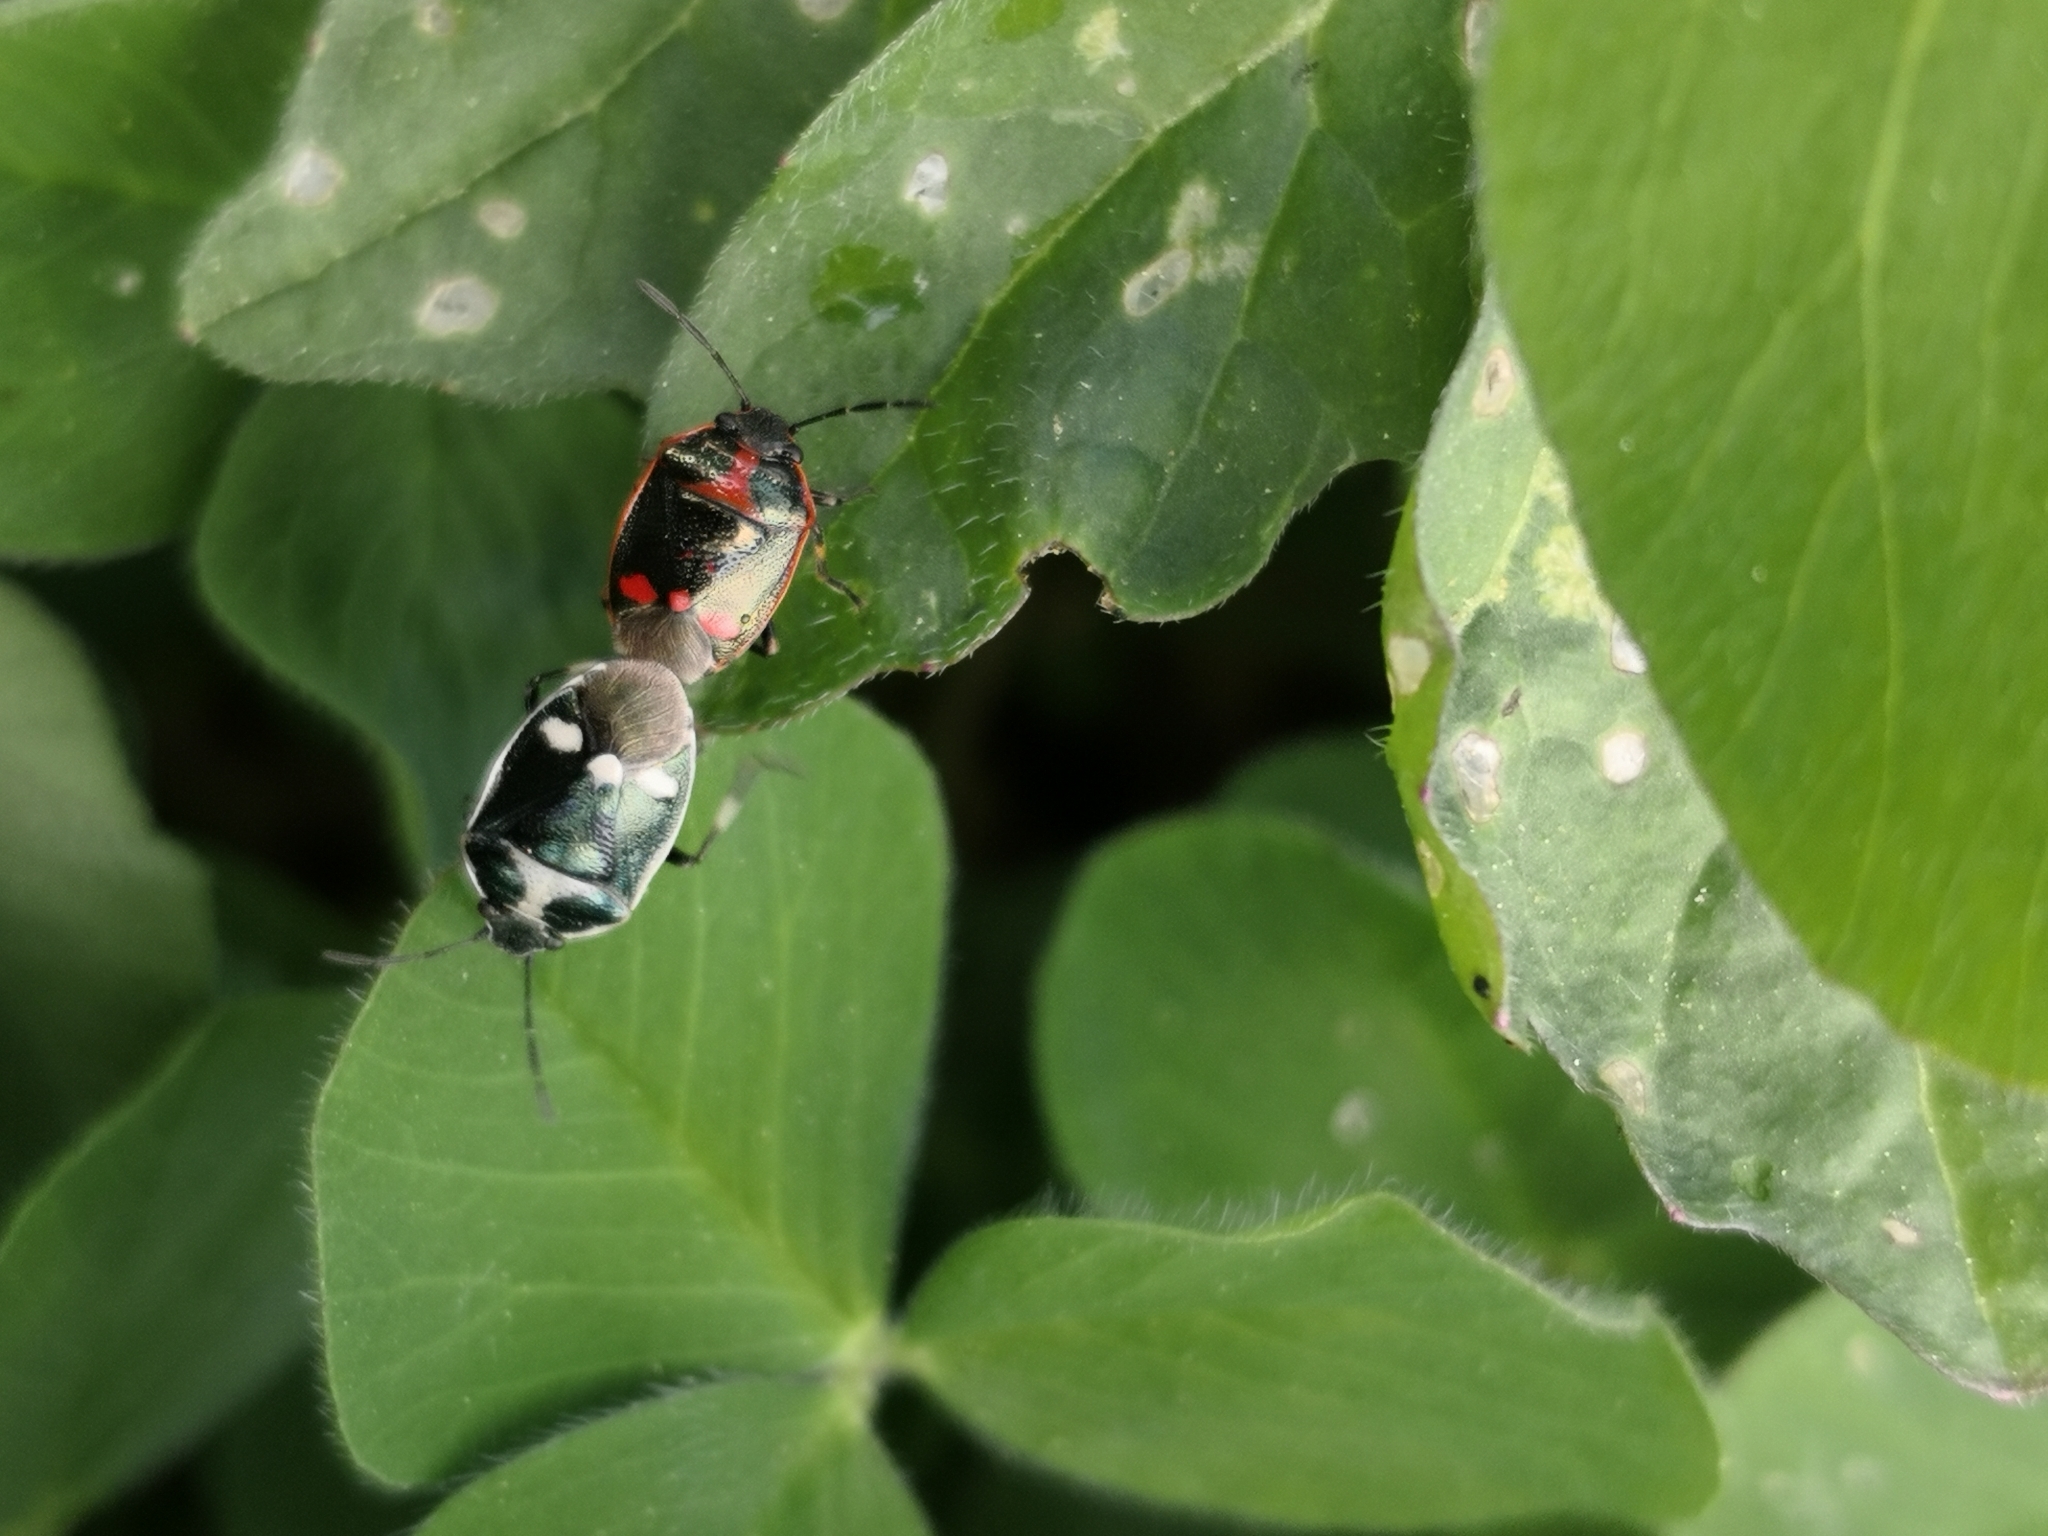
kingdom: Animalia
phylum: Arthropoda
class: Insecta
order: Hemiptera
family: Pentatomidae
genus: Eurydema
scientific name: Eurydema oleracea
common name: Cabbage bug
